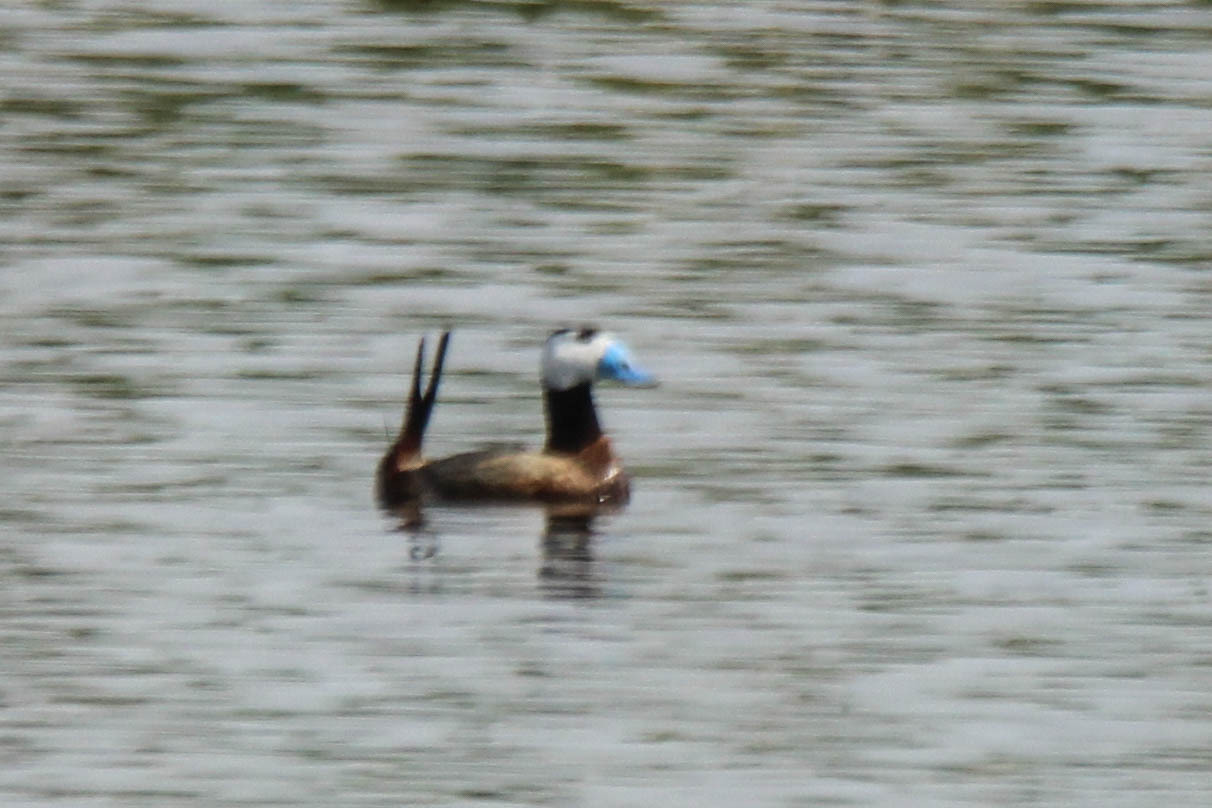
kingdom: Animalia
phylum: Chordata
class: Aves
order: Anseriformes
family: Anatidae
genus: Oxyura
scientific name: Oxyura leucocephala
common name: White-headed duck
